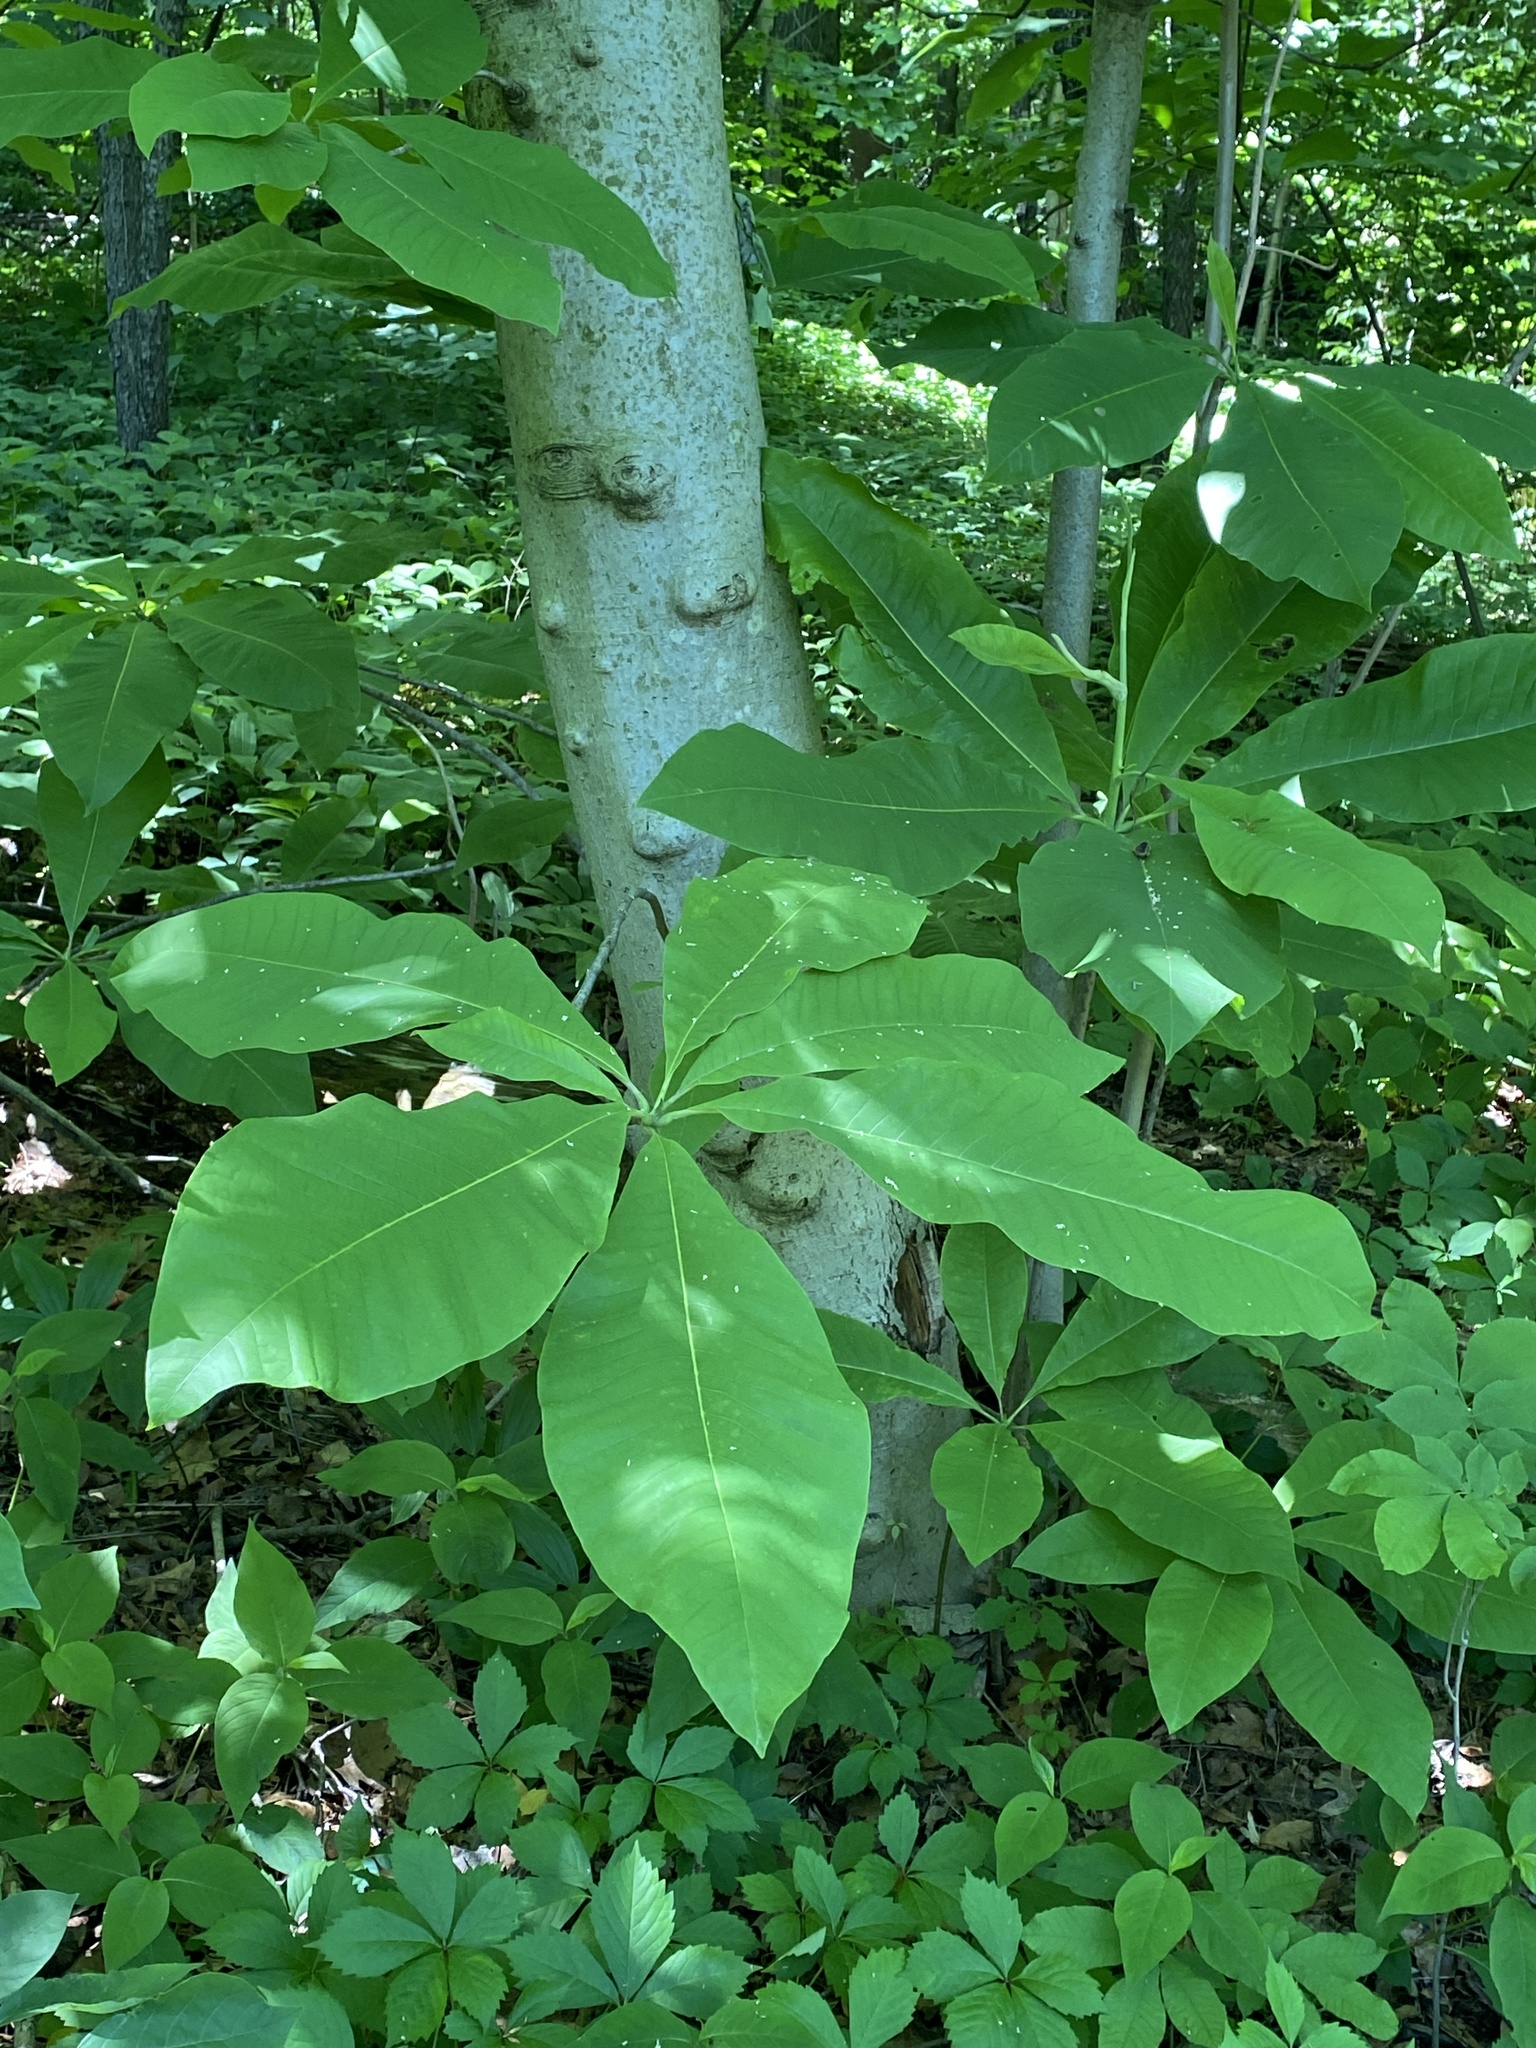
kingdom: Plantae
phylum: Tracheophyta
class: Magnoliopsida
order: Magnoliales
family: Magnoliaceae
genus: Magnolia
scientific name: Magnolia tripetala
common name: Umbrella magnolia
